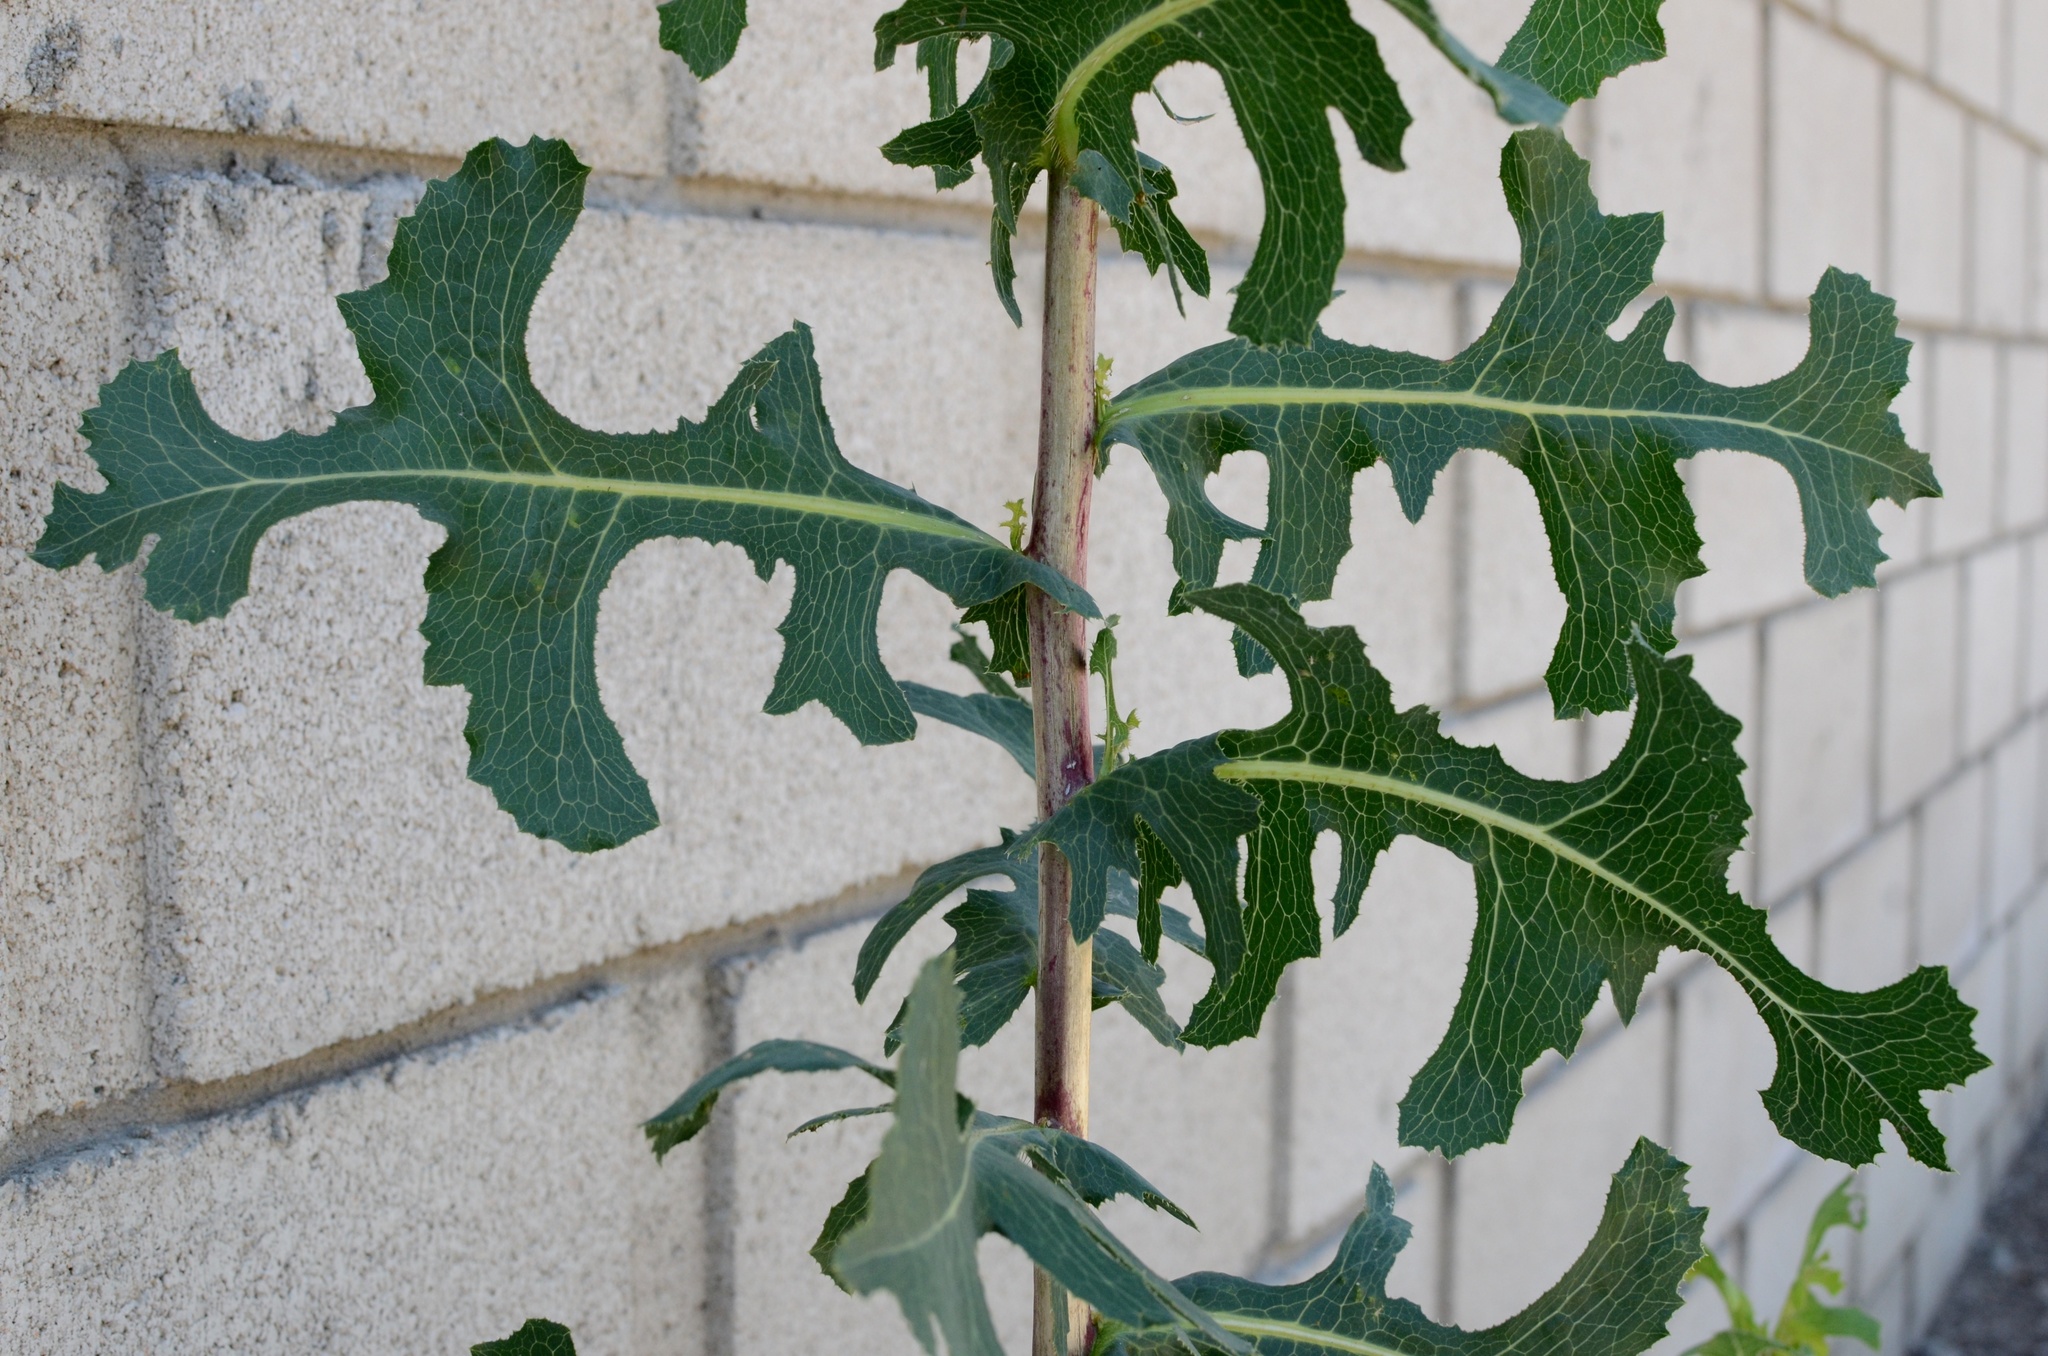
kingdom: Plantae
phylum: Tracheophyta
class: Magnoliopsida
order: Asterales
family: Asteraceae
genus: Lactuca
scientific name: Lactuca serriola
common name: Prickly lettuce
